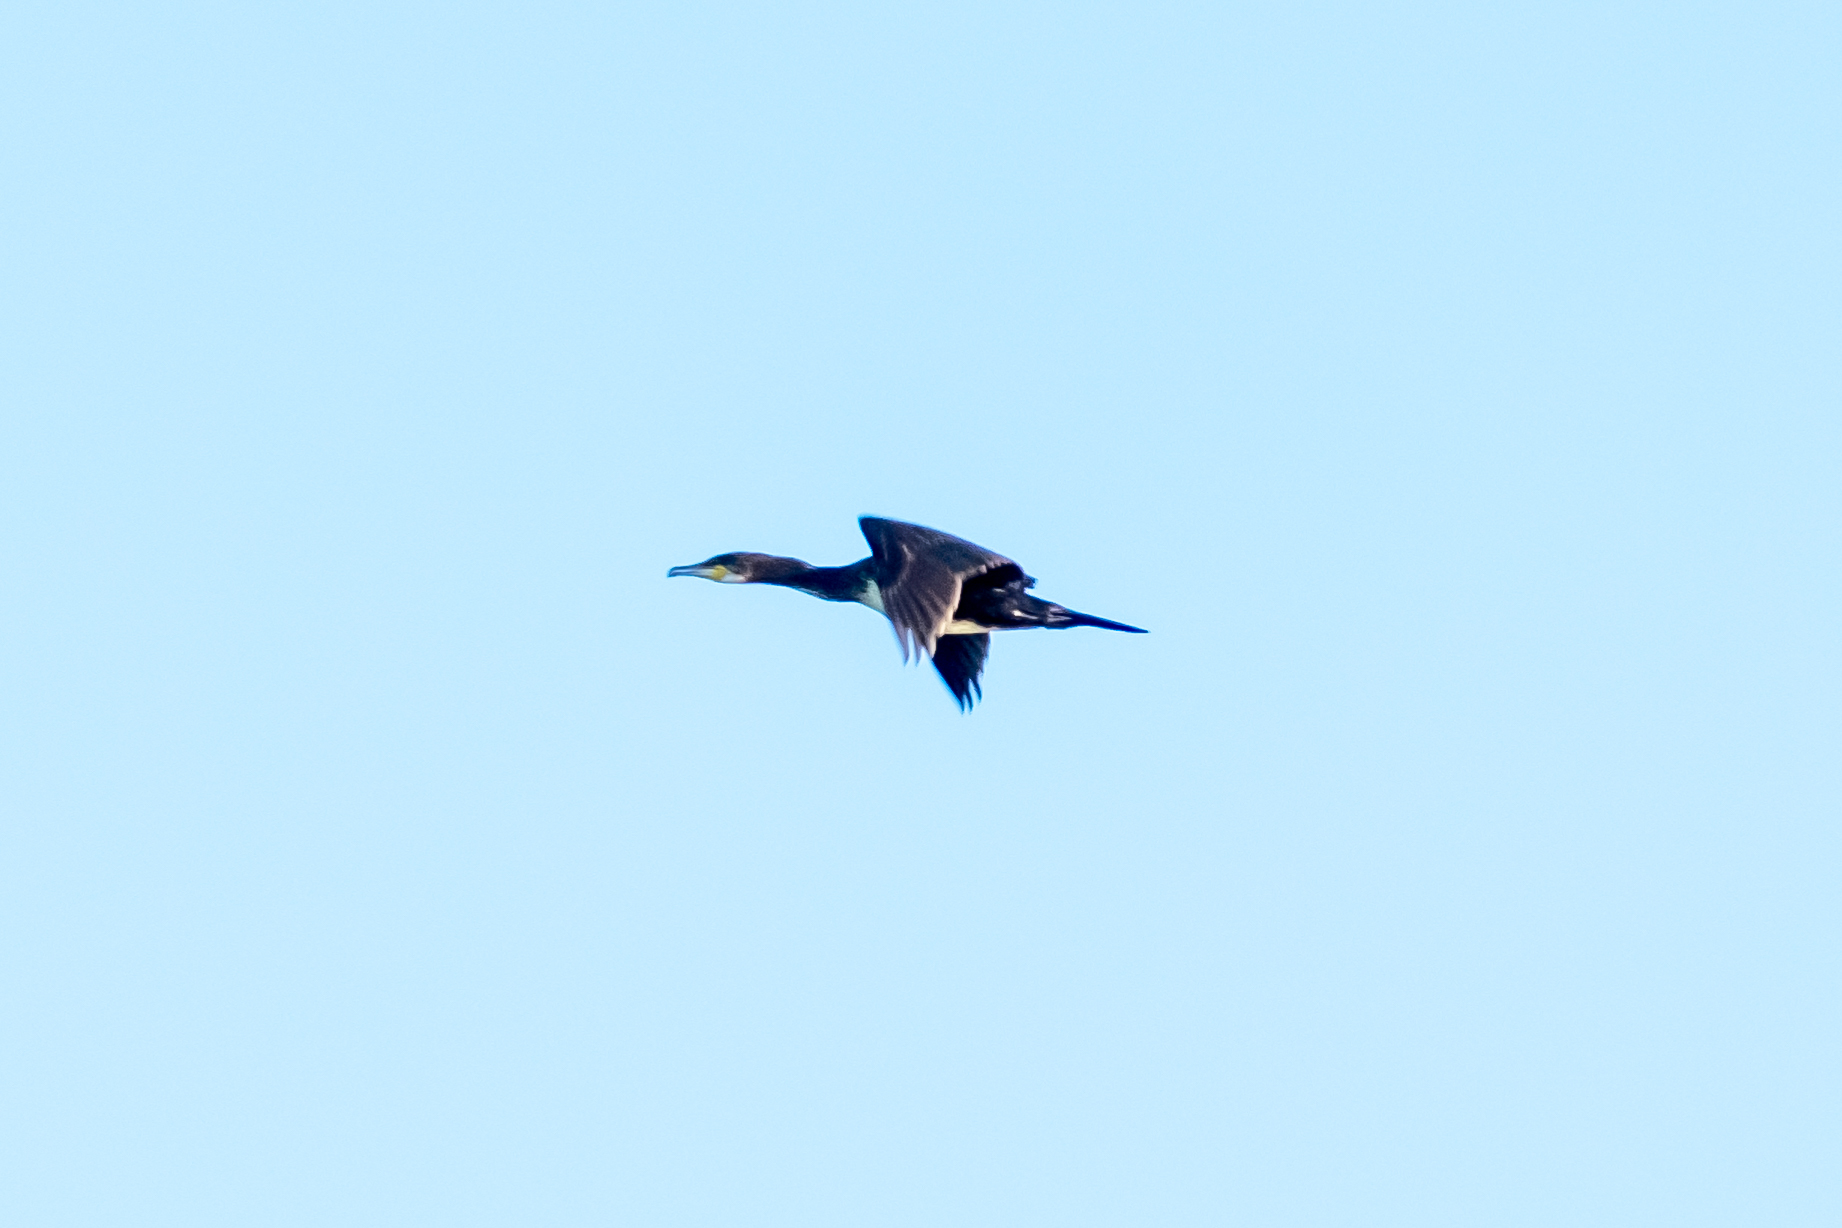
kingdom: Animalia
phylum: Chordata
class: Aves
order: Suliformes
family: Phalacrocoracidae
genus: Phalacrocorax
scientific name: Phalacrocorax carbo
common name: Great cormorant
